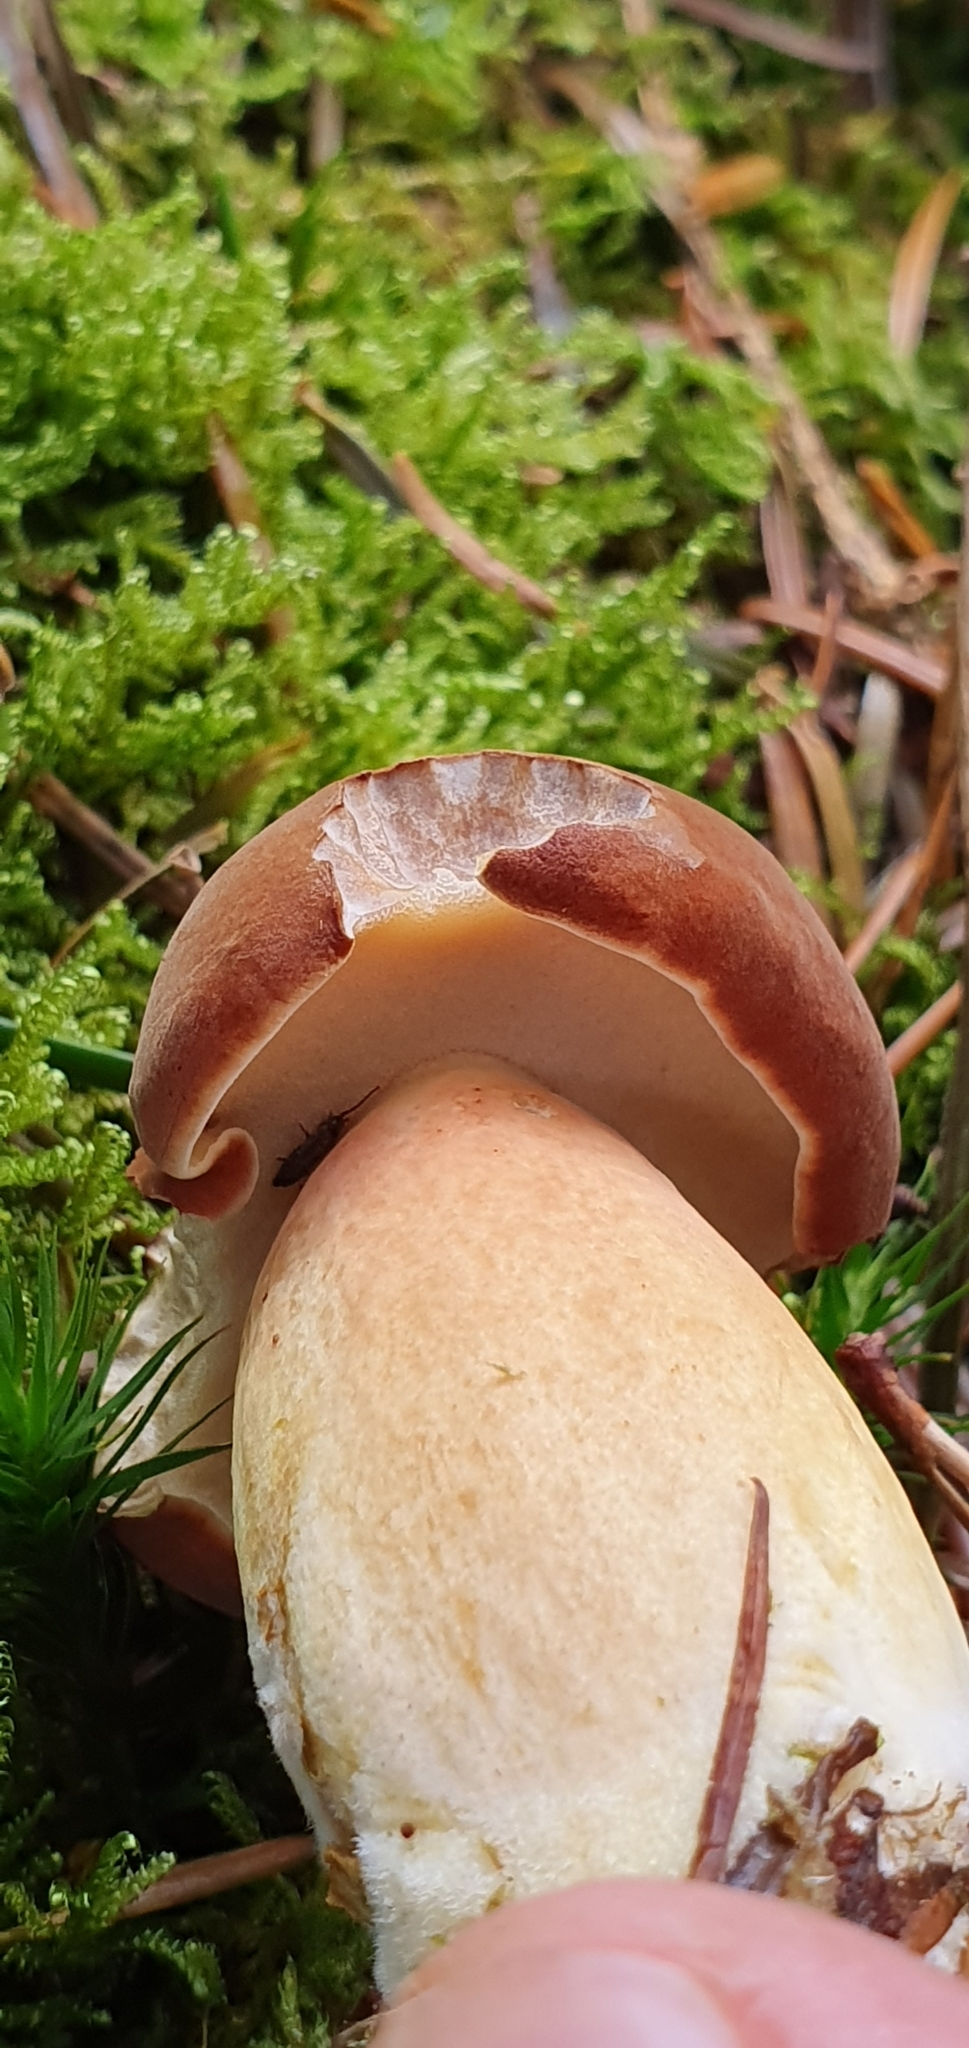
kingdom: Fungi
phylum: Basidiomycota
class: Agaricomycetes
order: Boletales
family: Boletaceae
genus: Imleria
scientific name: Imleria badia
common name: Bay bolete
